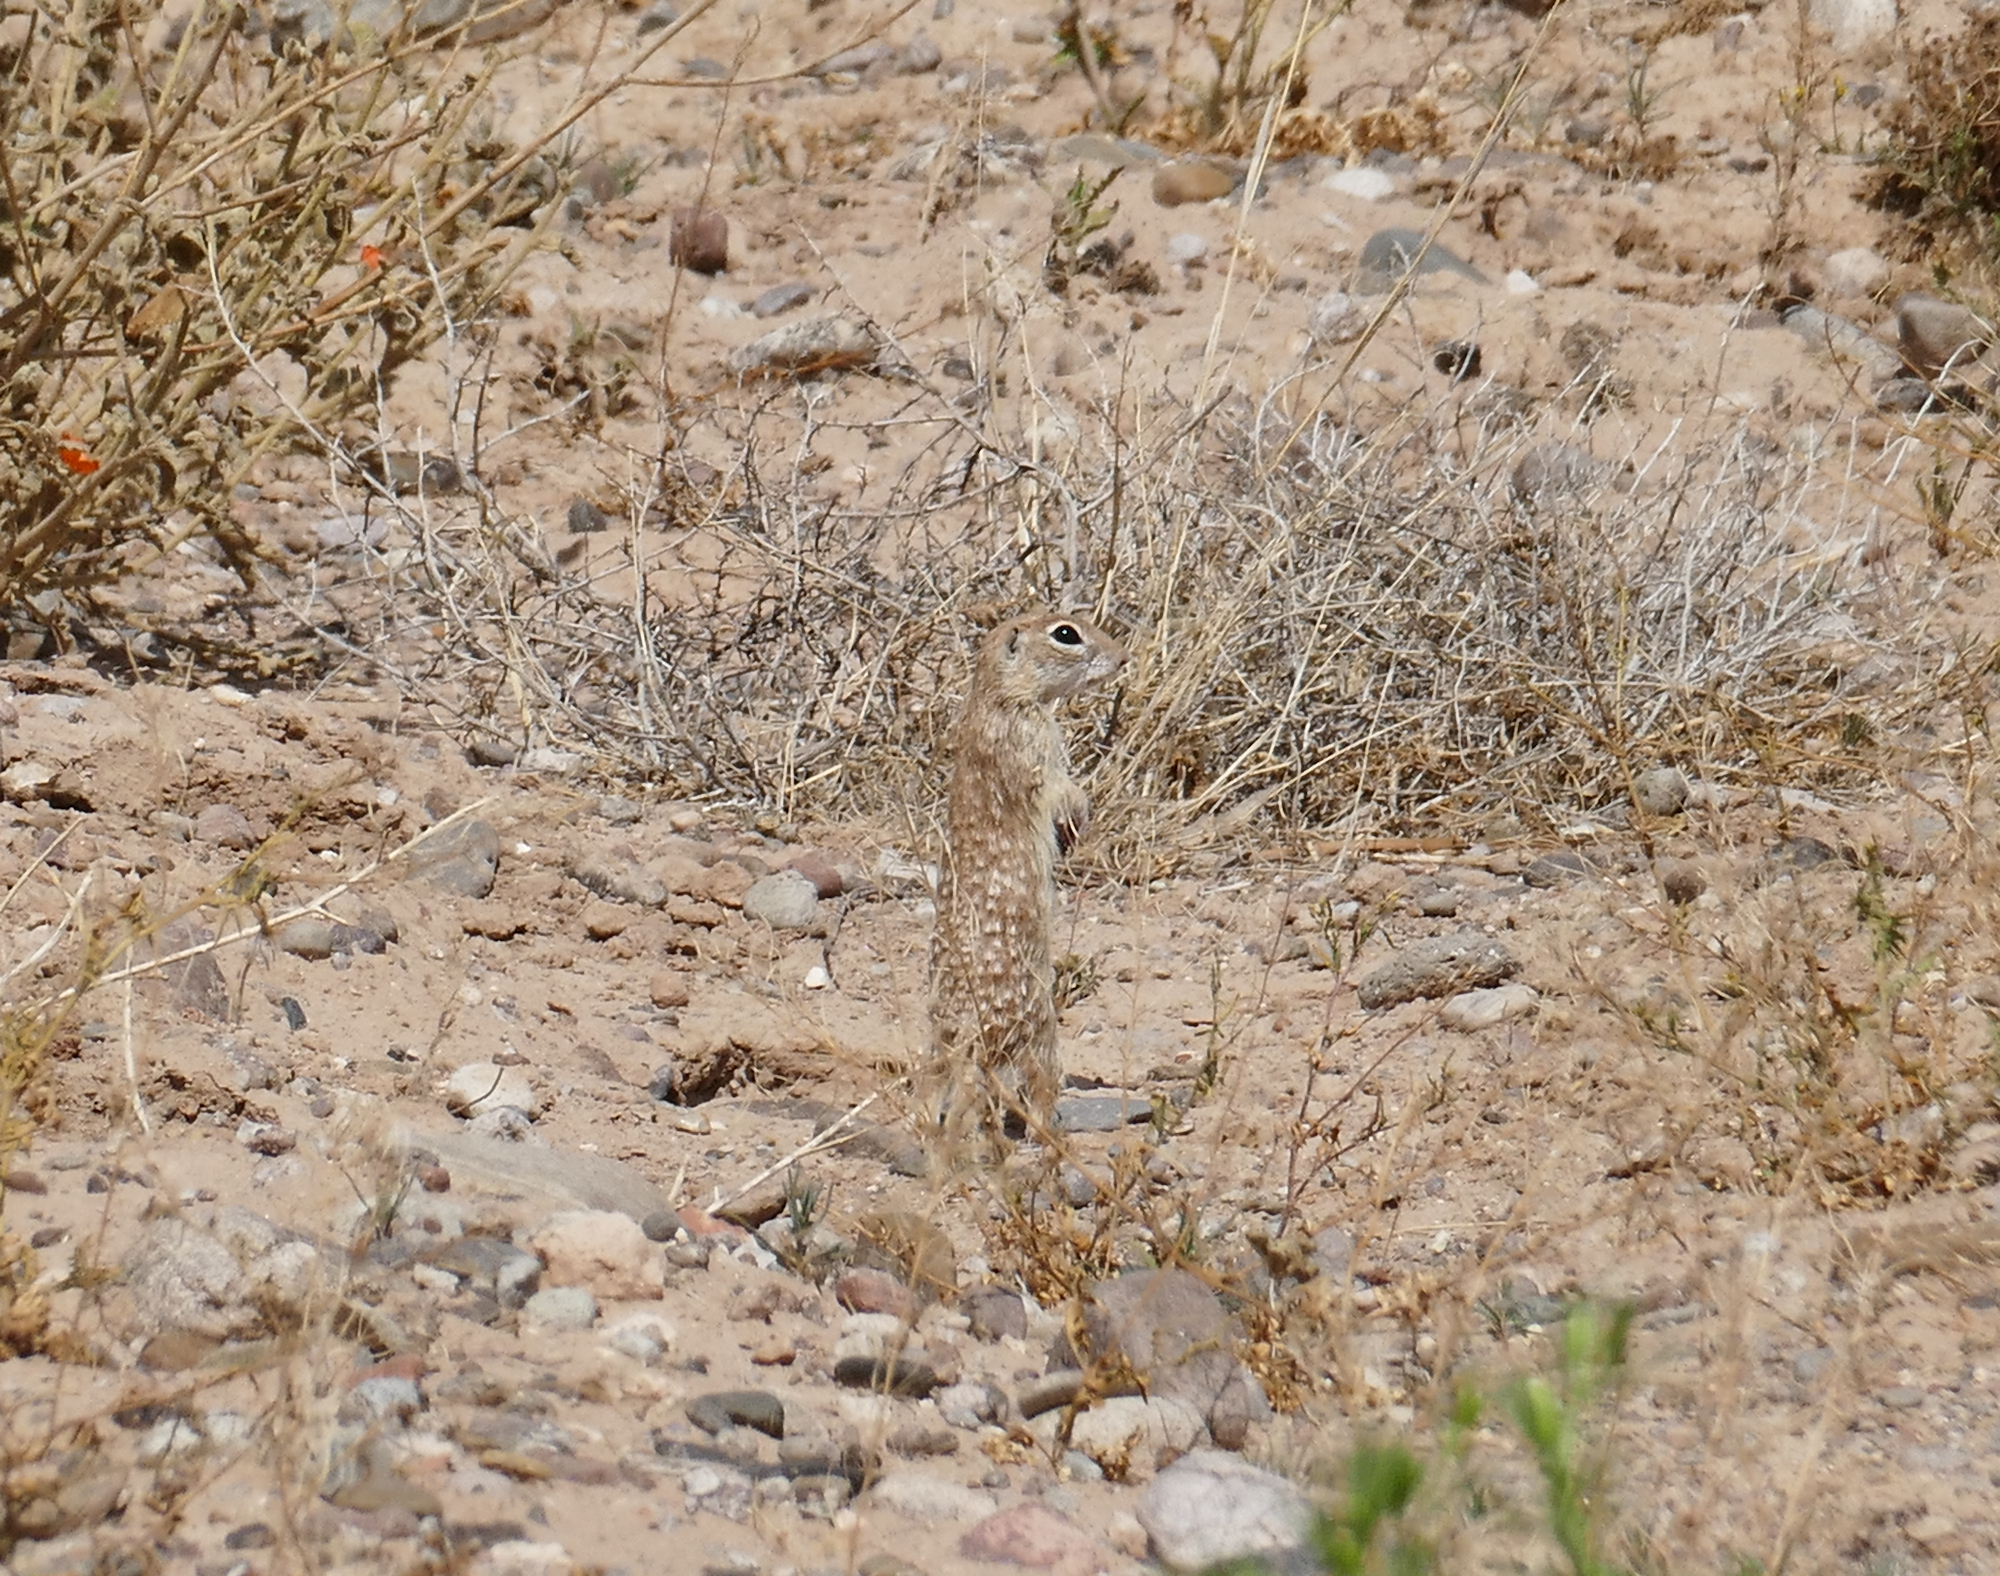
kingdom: Animalia
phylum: Chordata
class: Mammalia
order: Rodentia
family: Sciuridae
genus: Xerospermophilus
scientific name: Xerospermophilus spilosoma
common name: Spotted ground squirrel
